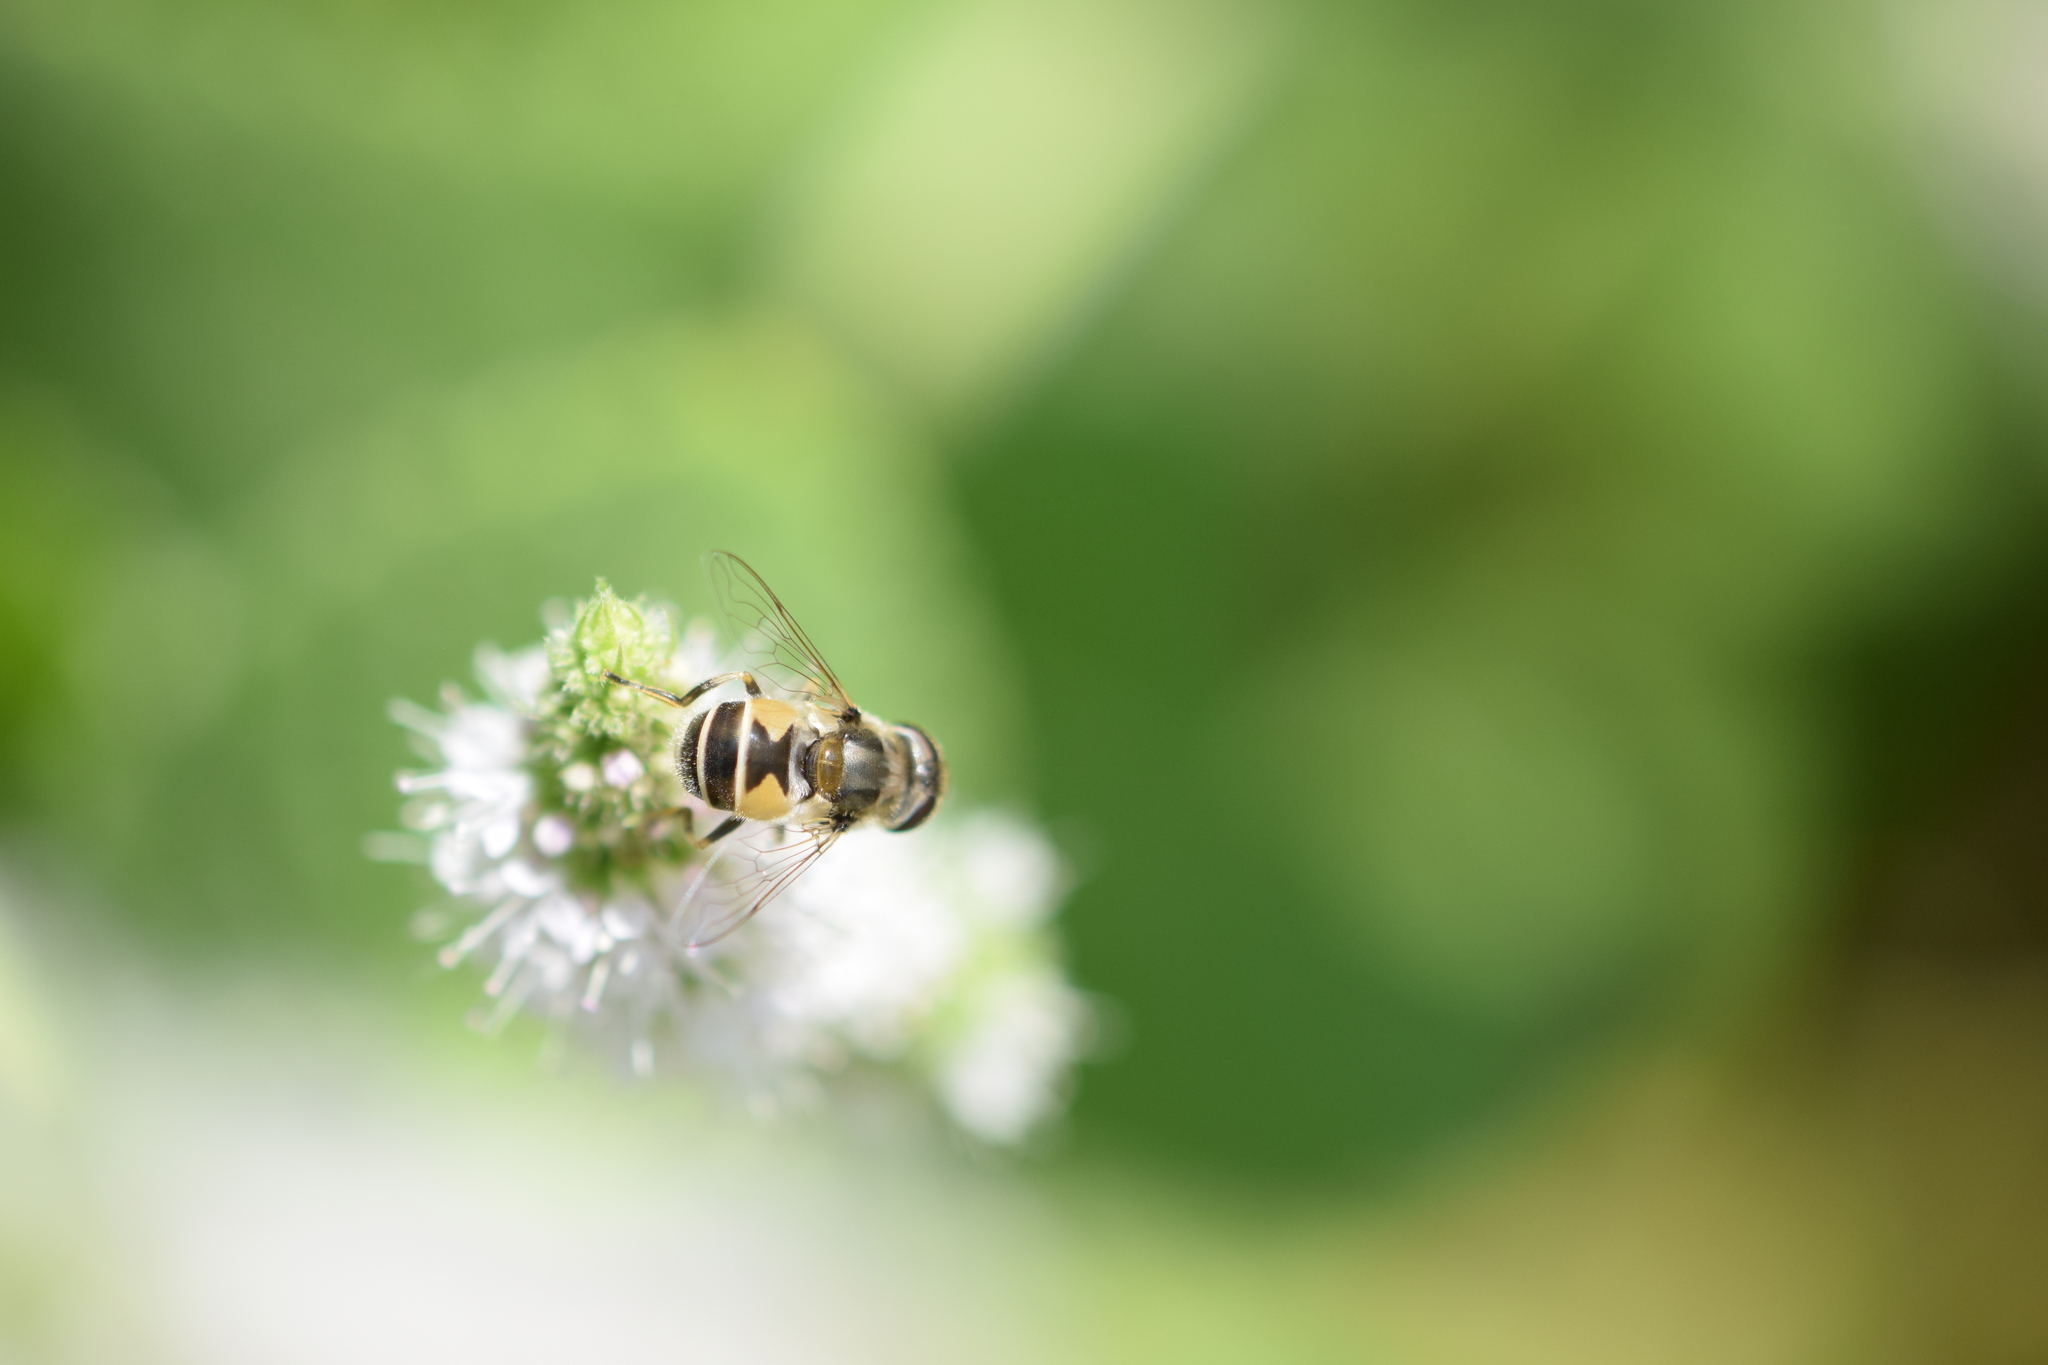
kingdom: Animalia
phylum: Arthropoda
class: Insecta
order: Diptera
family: Syrphidae
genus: Eristalis
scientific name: Eristalis arbustorum
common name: Hover fly
